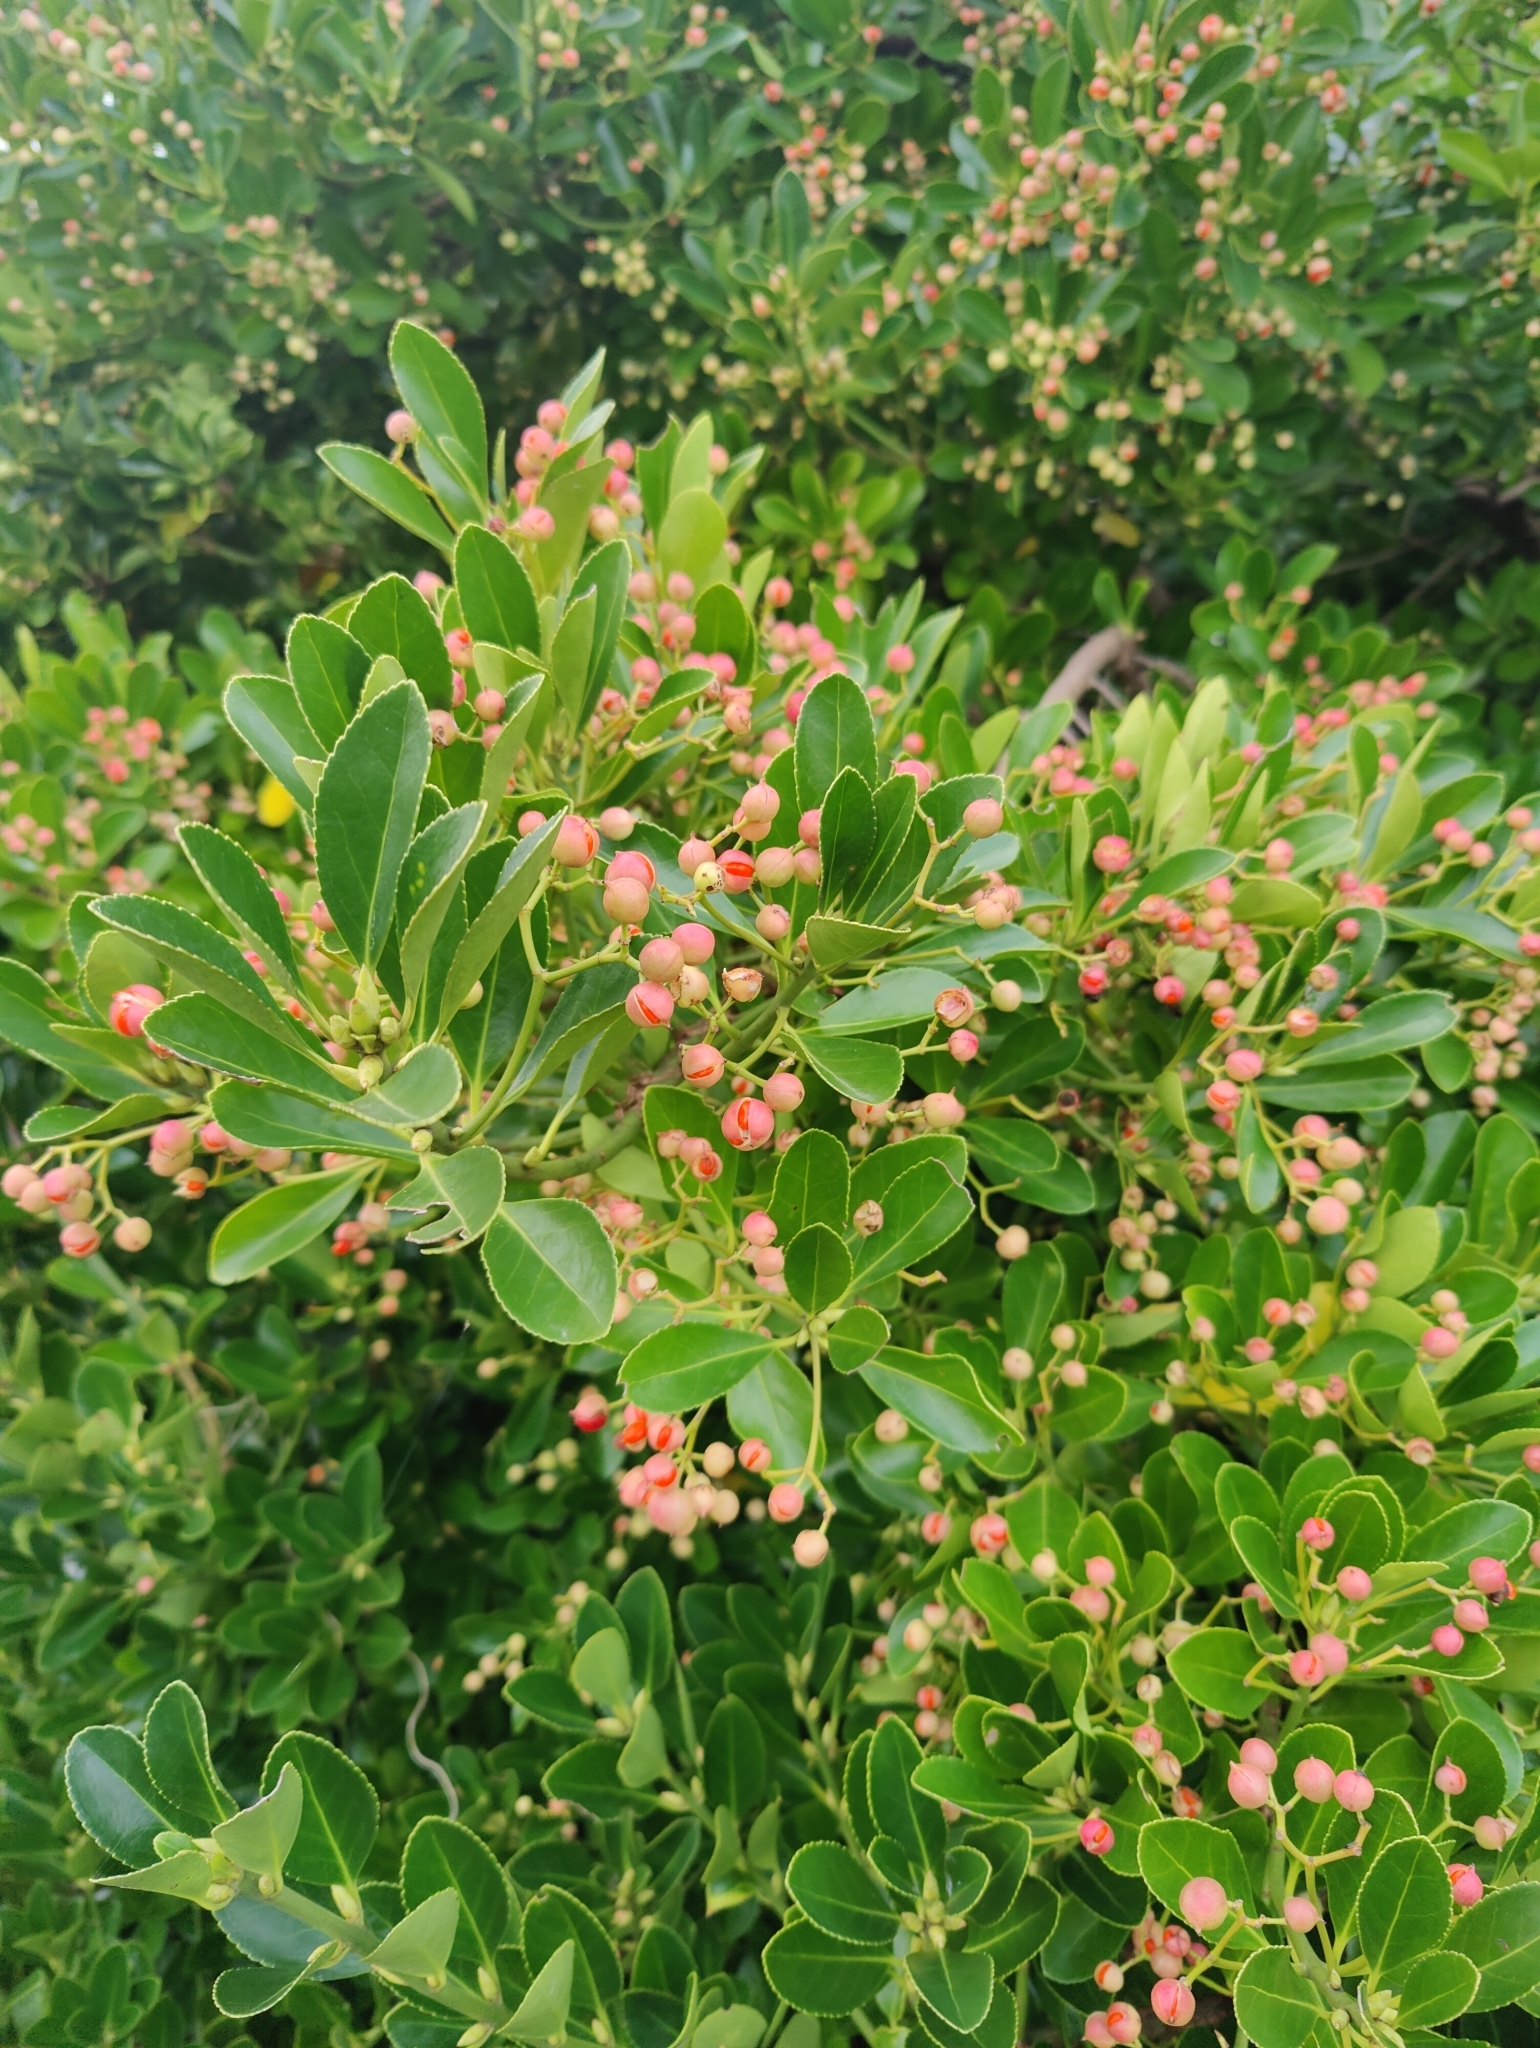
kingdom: Plantae
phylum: Tracheophyta
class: Magnoliopsida
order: Celastrales
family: Celastraceae
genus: Euonymus
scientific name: Euonymus japonicus
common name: Japanese spindletree
